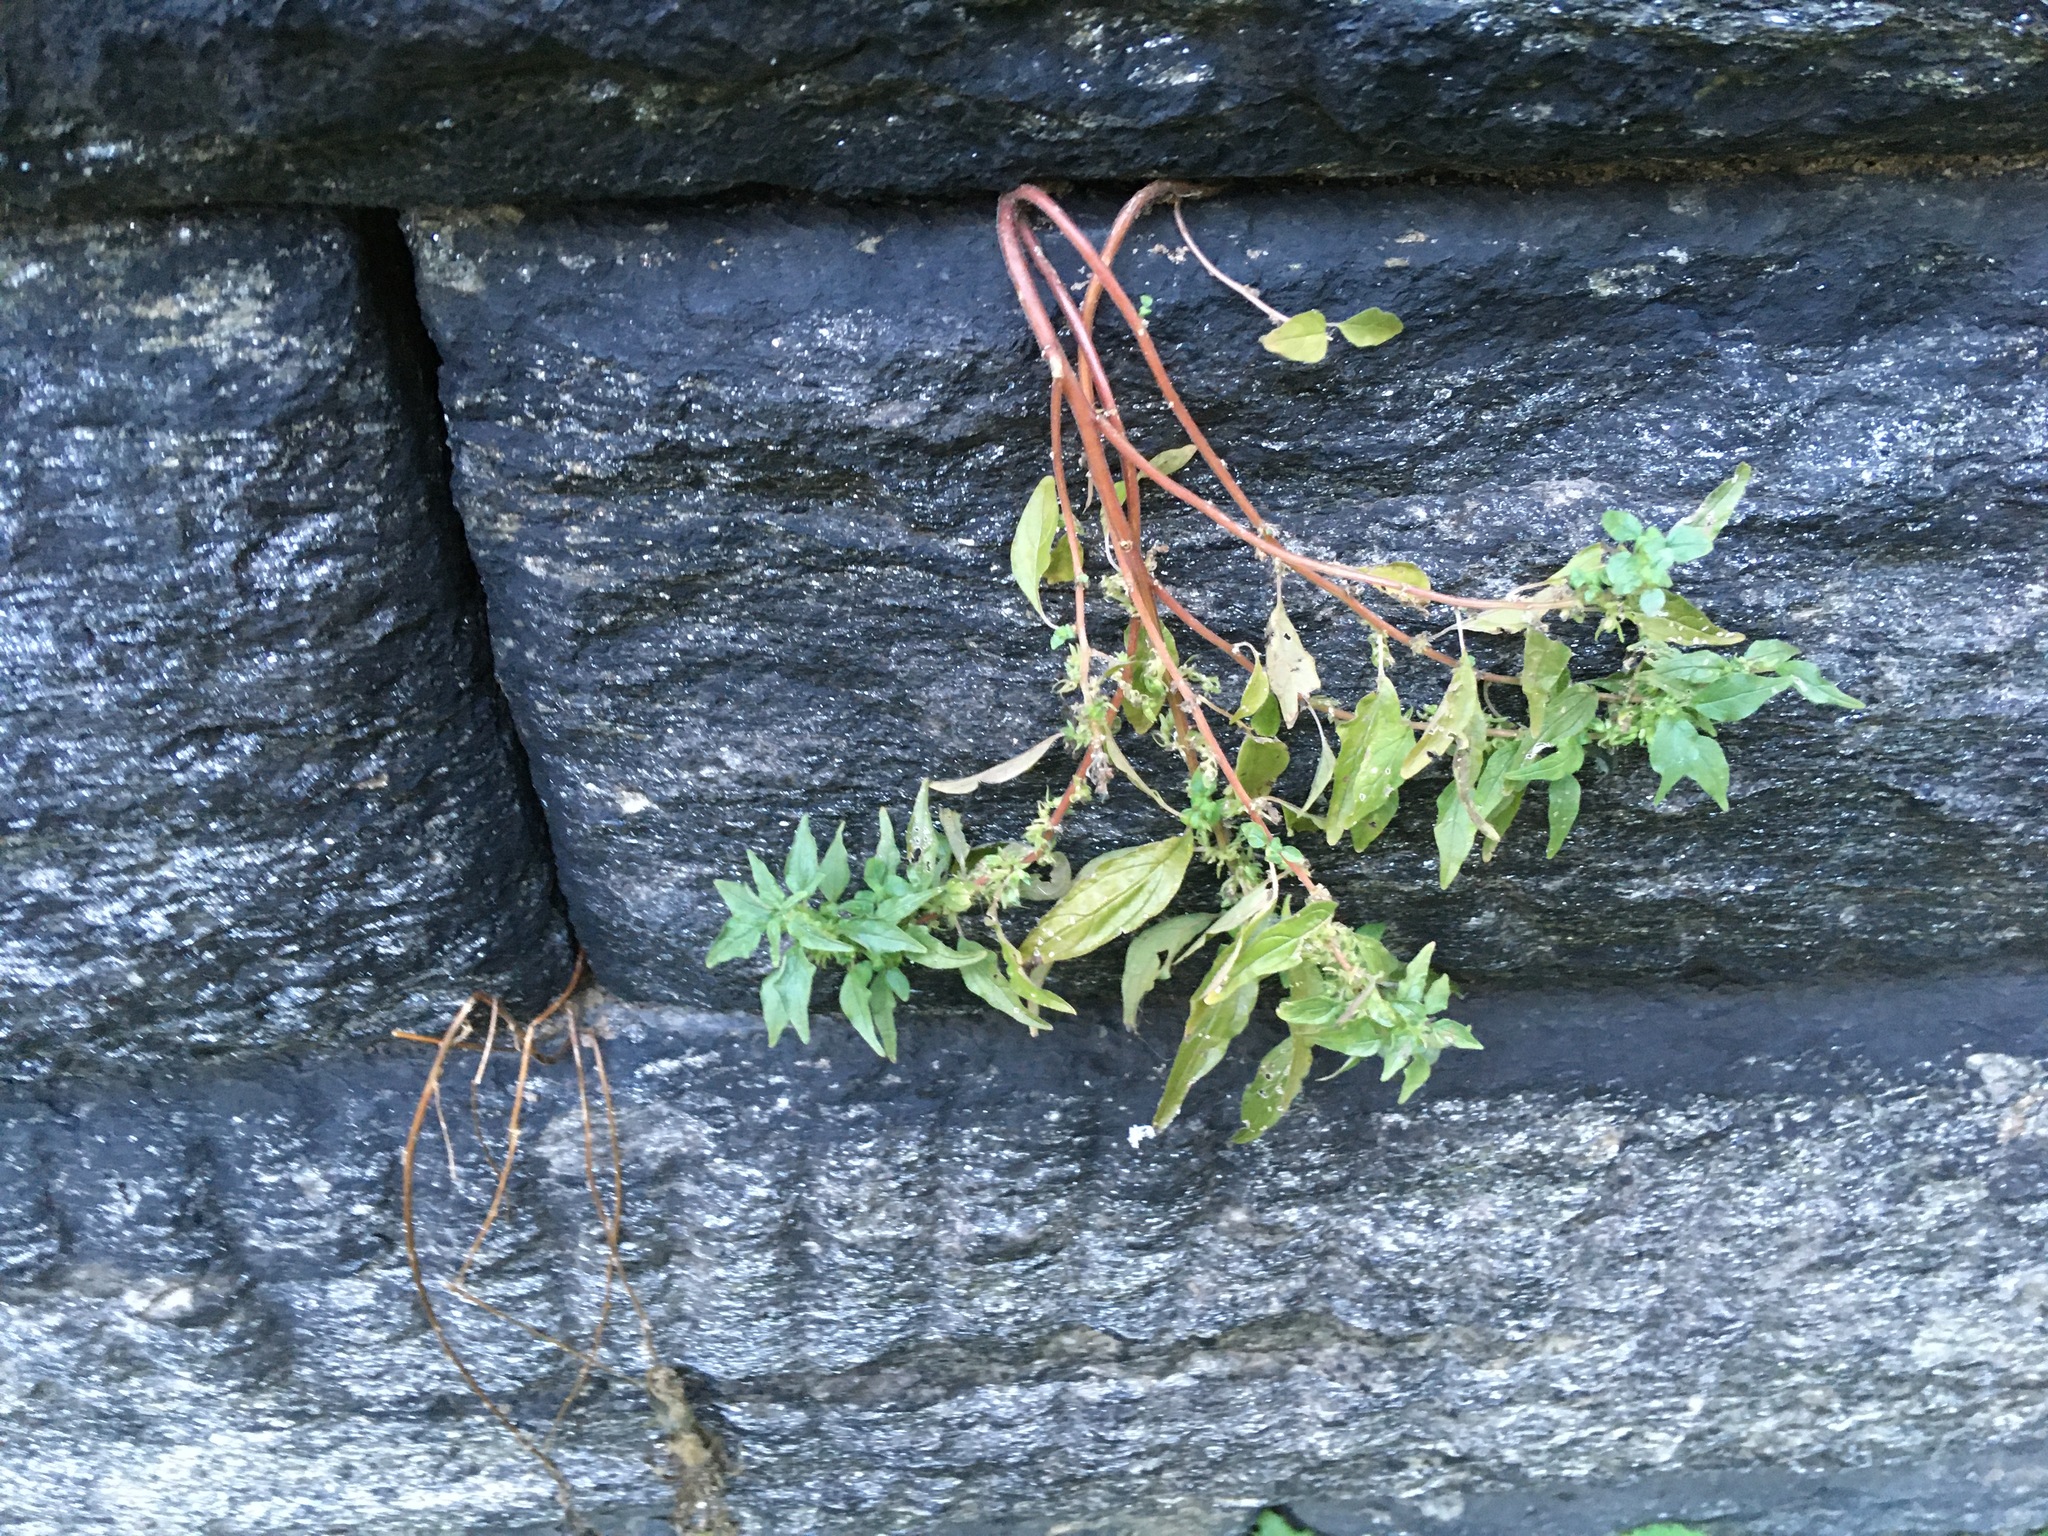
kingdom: Plantae
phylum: Tracheophyta
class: Magnoliopsida
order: Rosales
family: Urticaceae
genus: Parietaria
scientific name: Parietaria pensylvanica
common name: Pennsylvania pellitory
